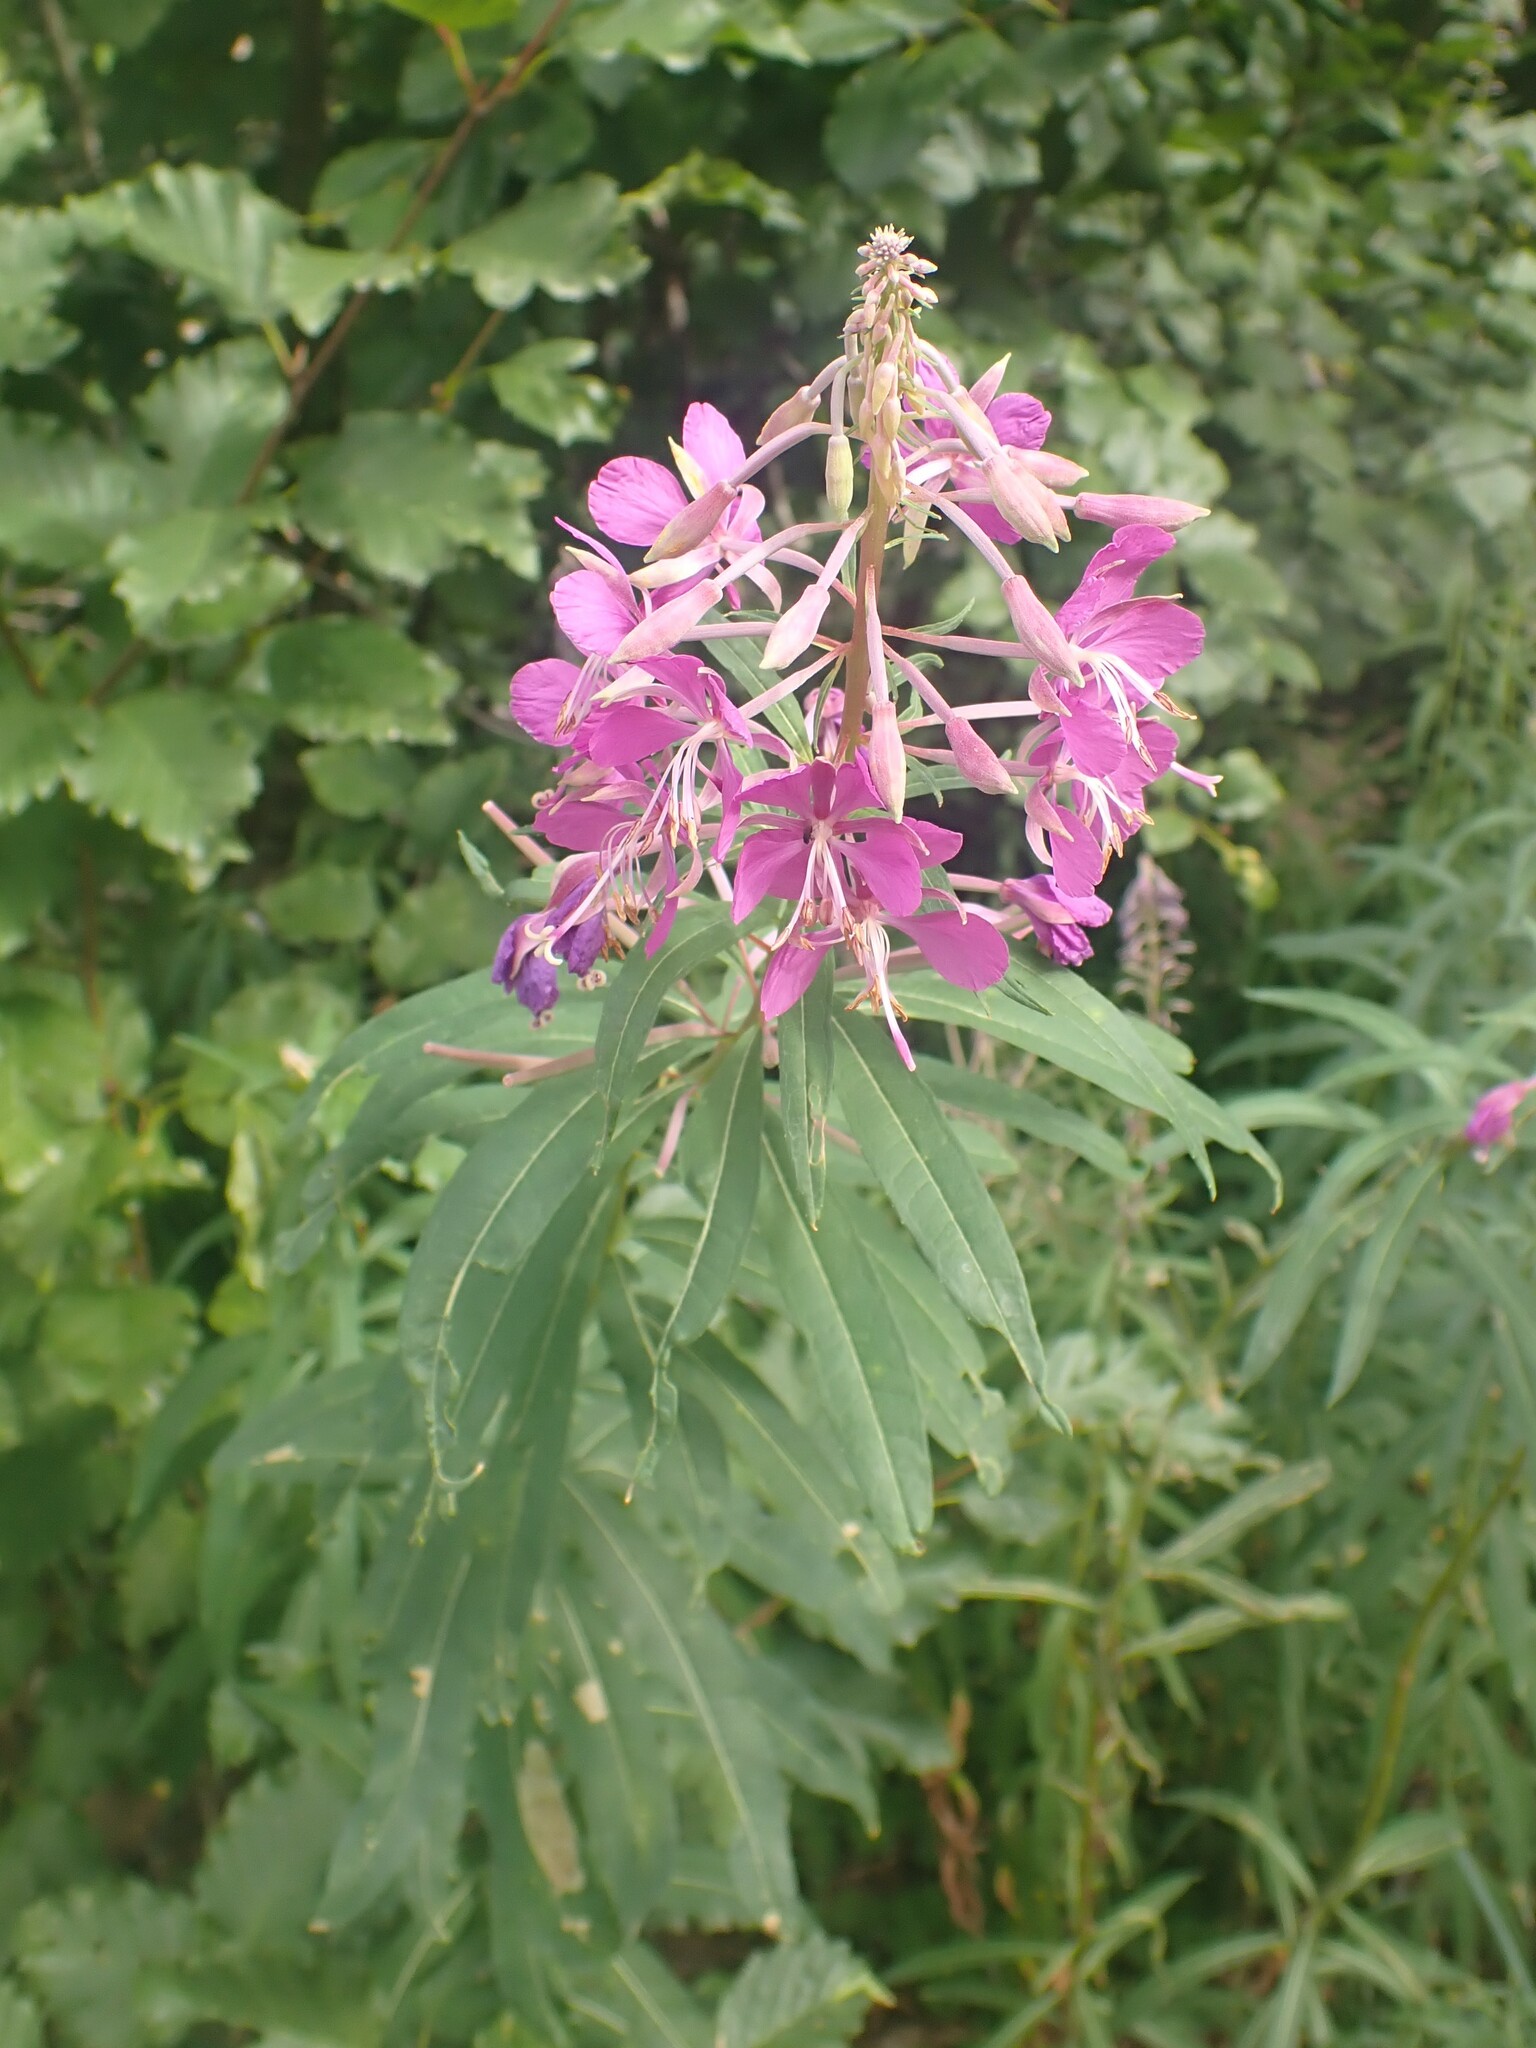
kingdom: Plantae
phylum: Tracheophyta
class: Magnoliopsida
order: Myrtales
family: Onagraceae
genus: Chamaenerion
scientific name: Chamaenerion angustifolium
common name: Fireweed
